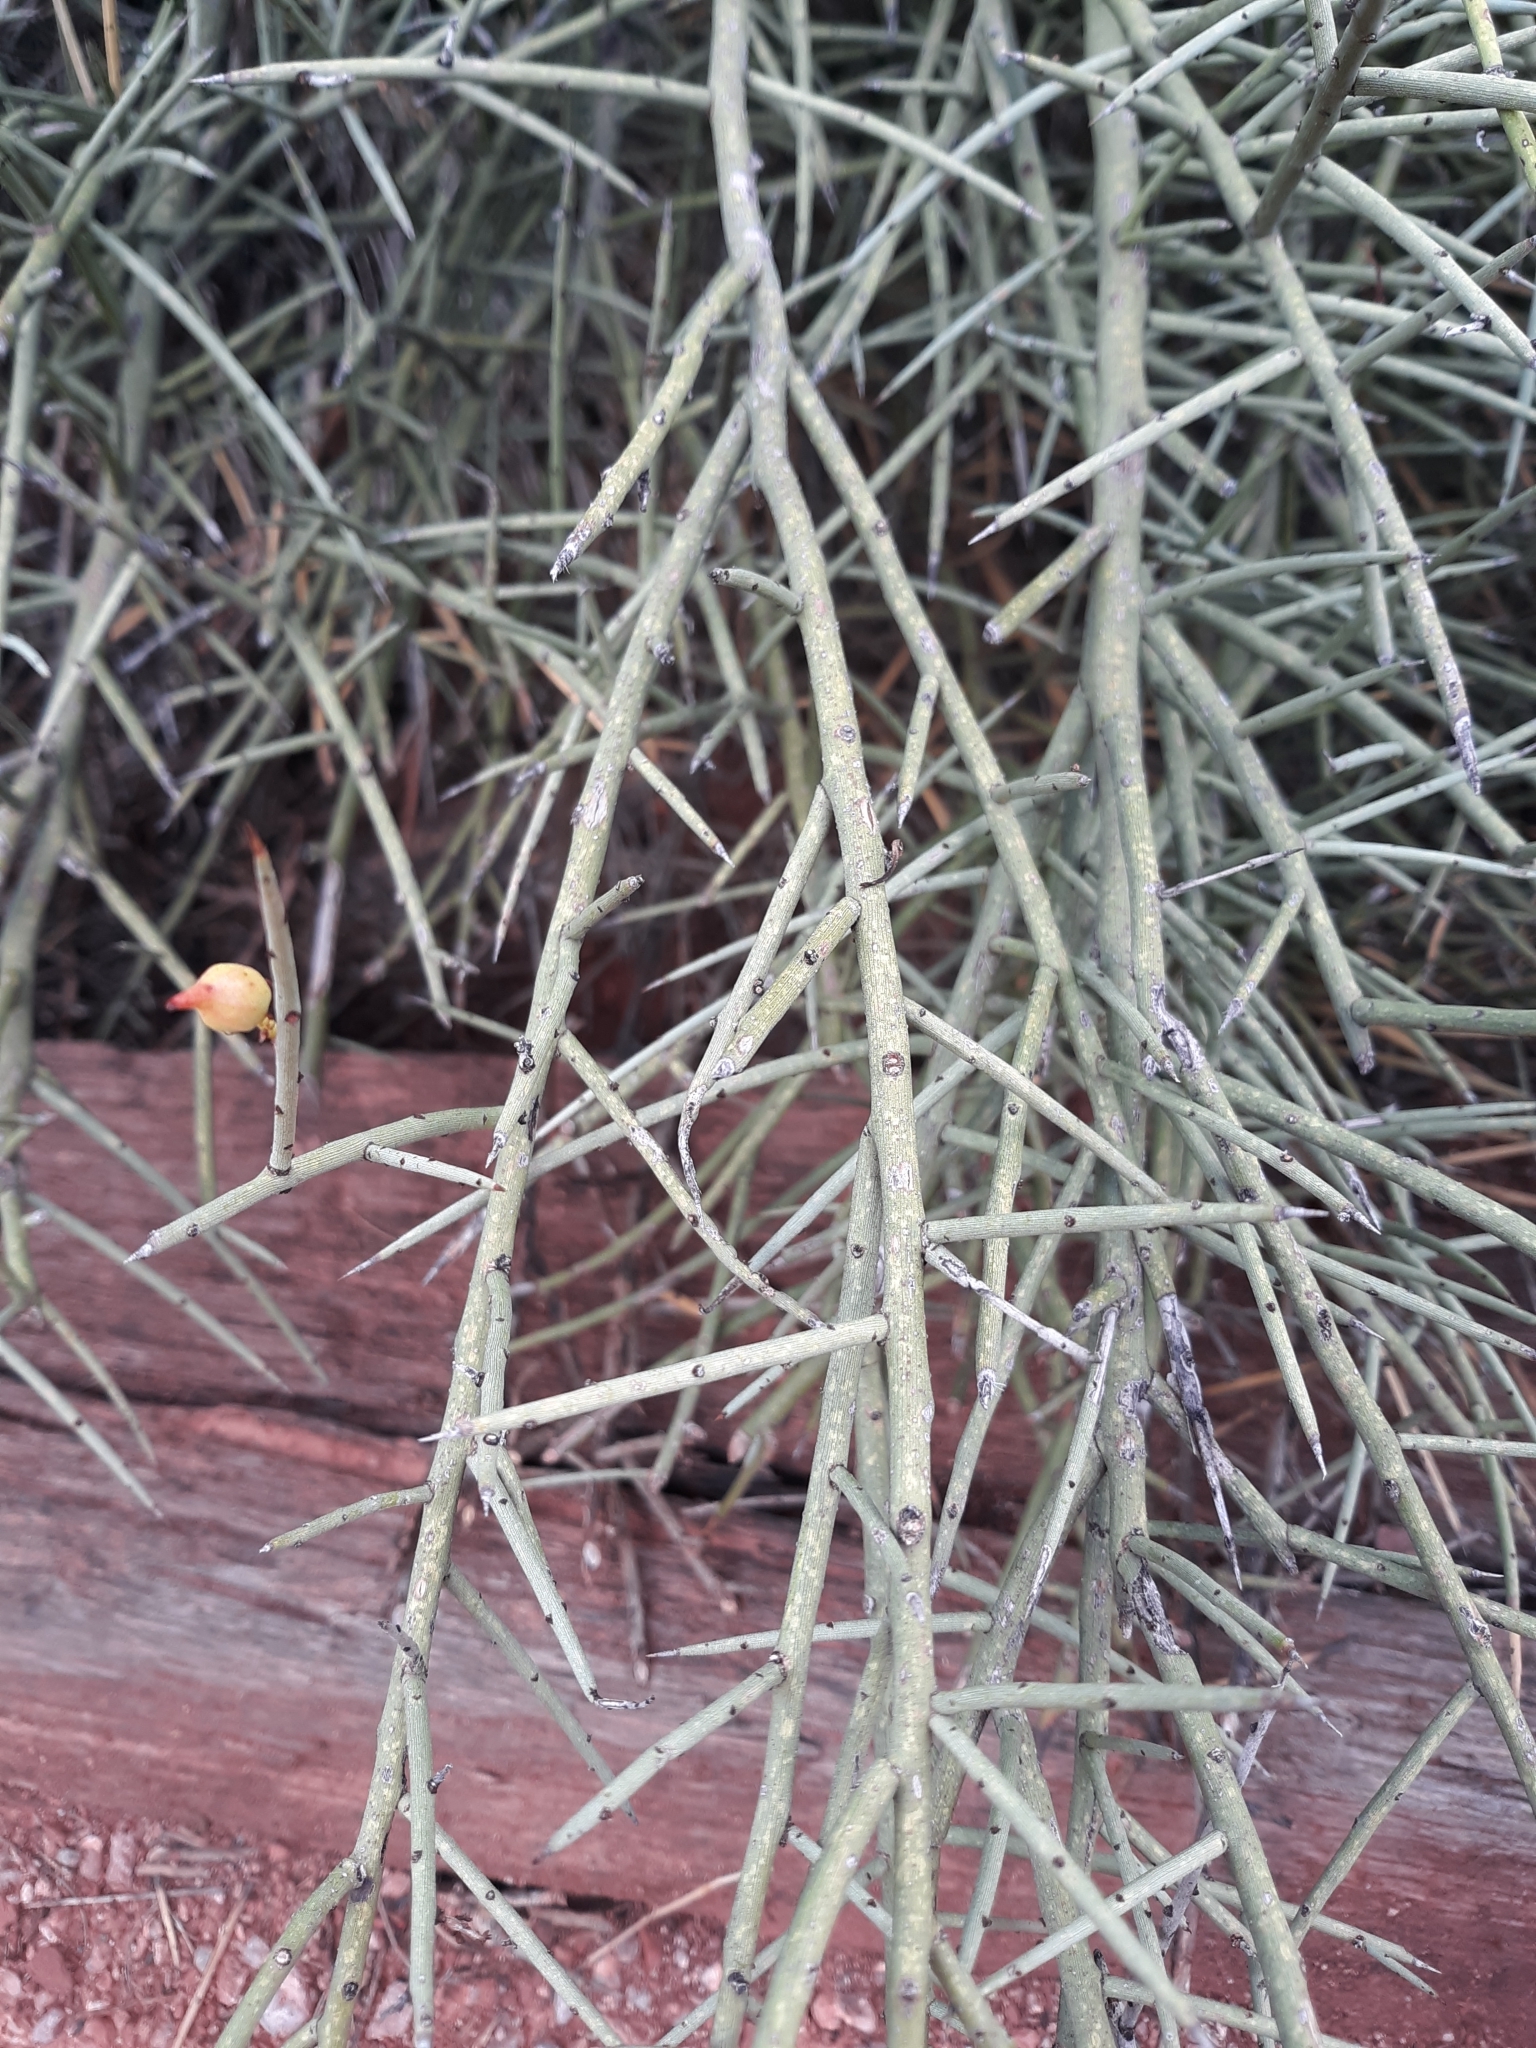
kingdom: Plantae
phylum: Tracheophyta
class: Magnoliopsida
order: Celastrales
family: Celastraceae
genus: Canotia
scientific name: Canotia holacantha
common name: Crucifixion thorns
